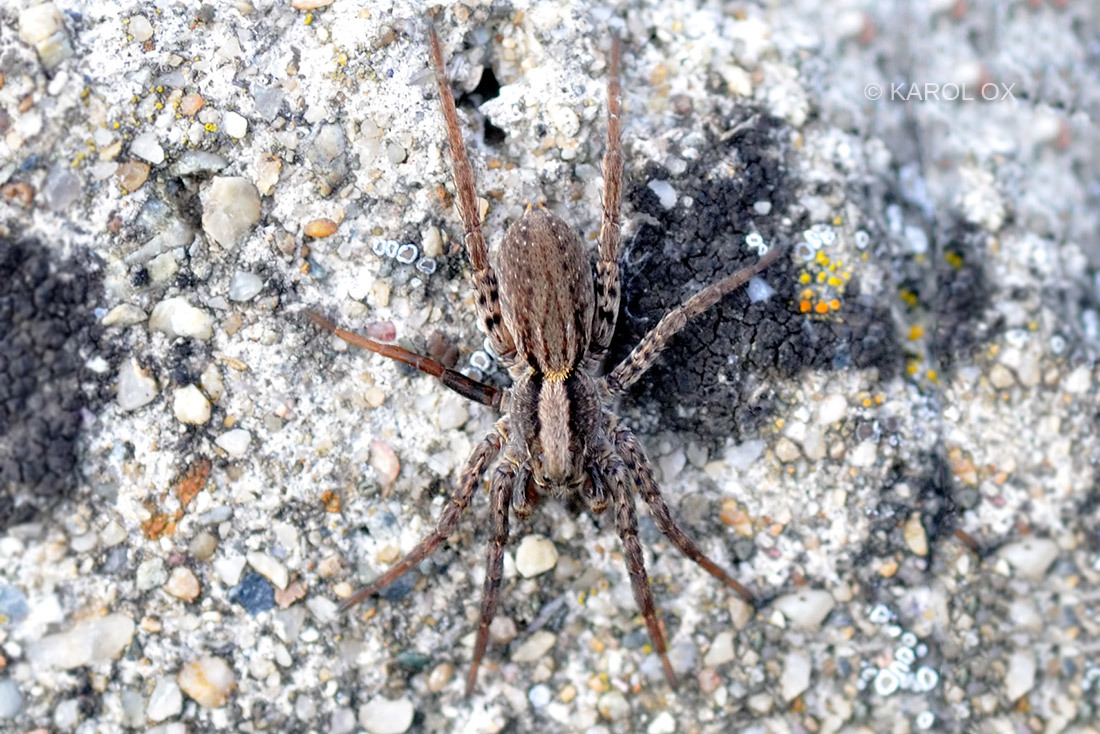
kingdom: Animalia
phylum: Arthropoda
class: Arachnida
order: Araneae
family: Lycosidae
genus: Alopecosa
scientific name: Alopecosa
